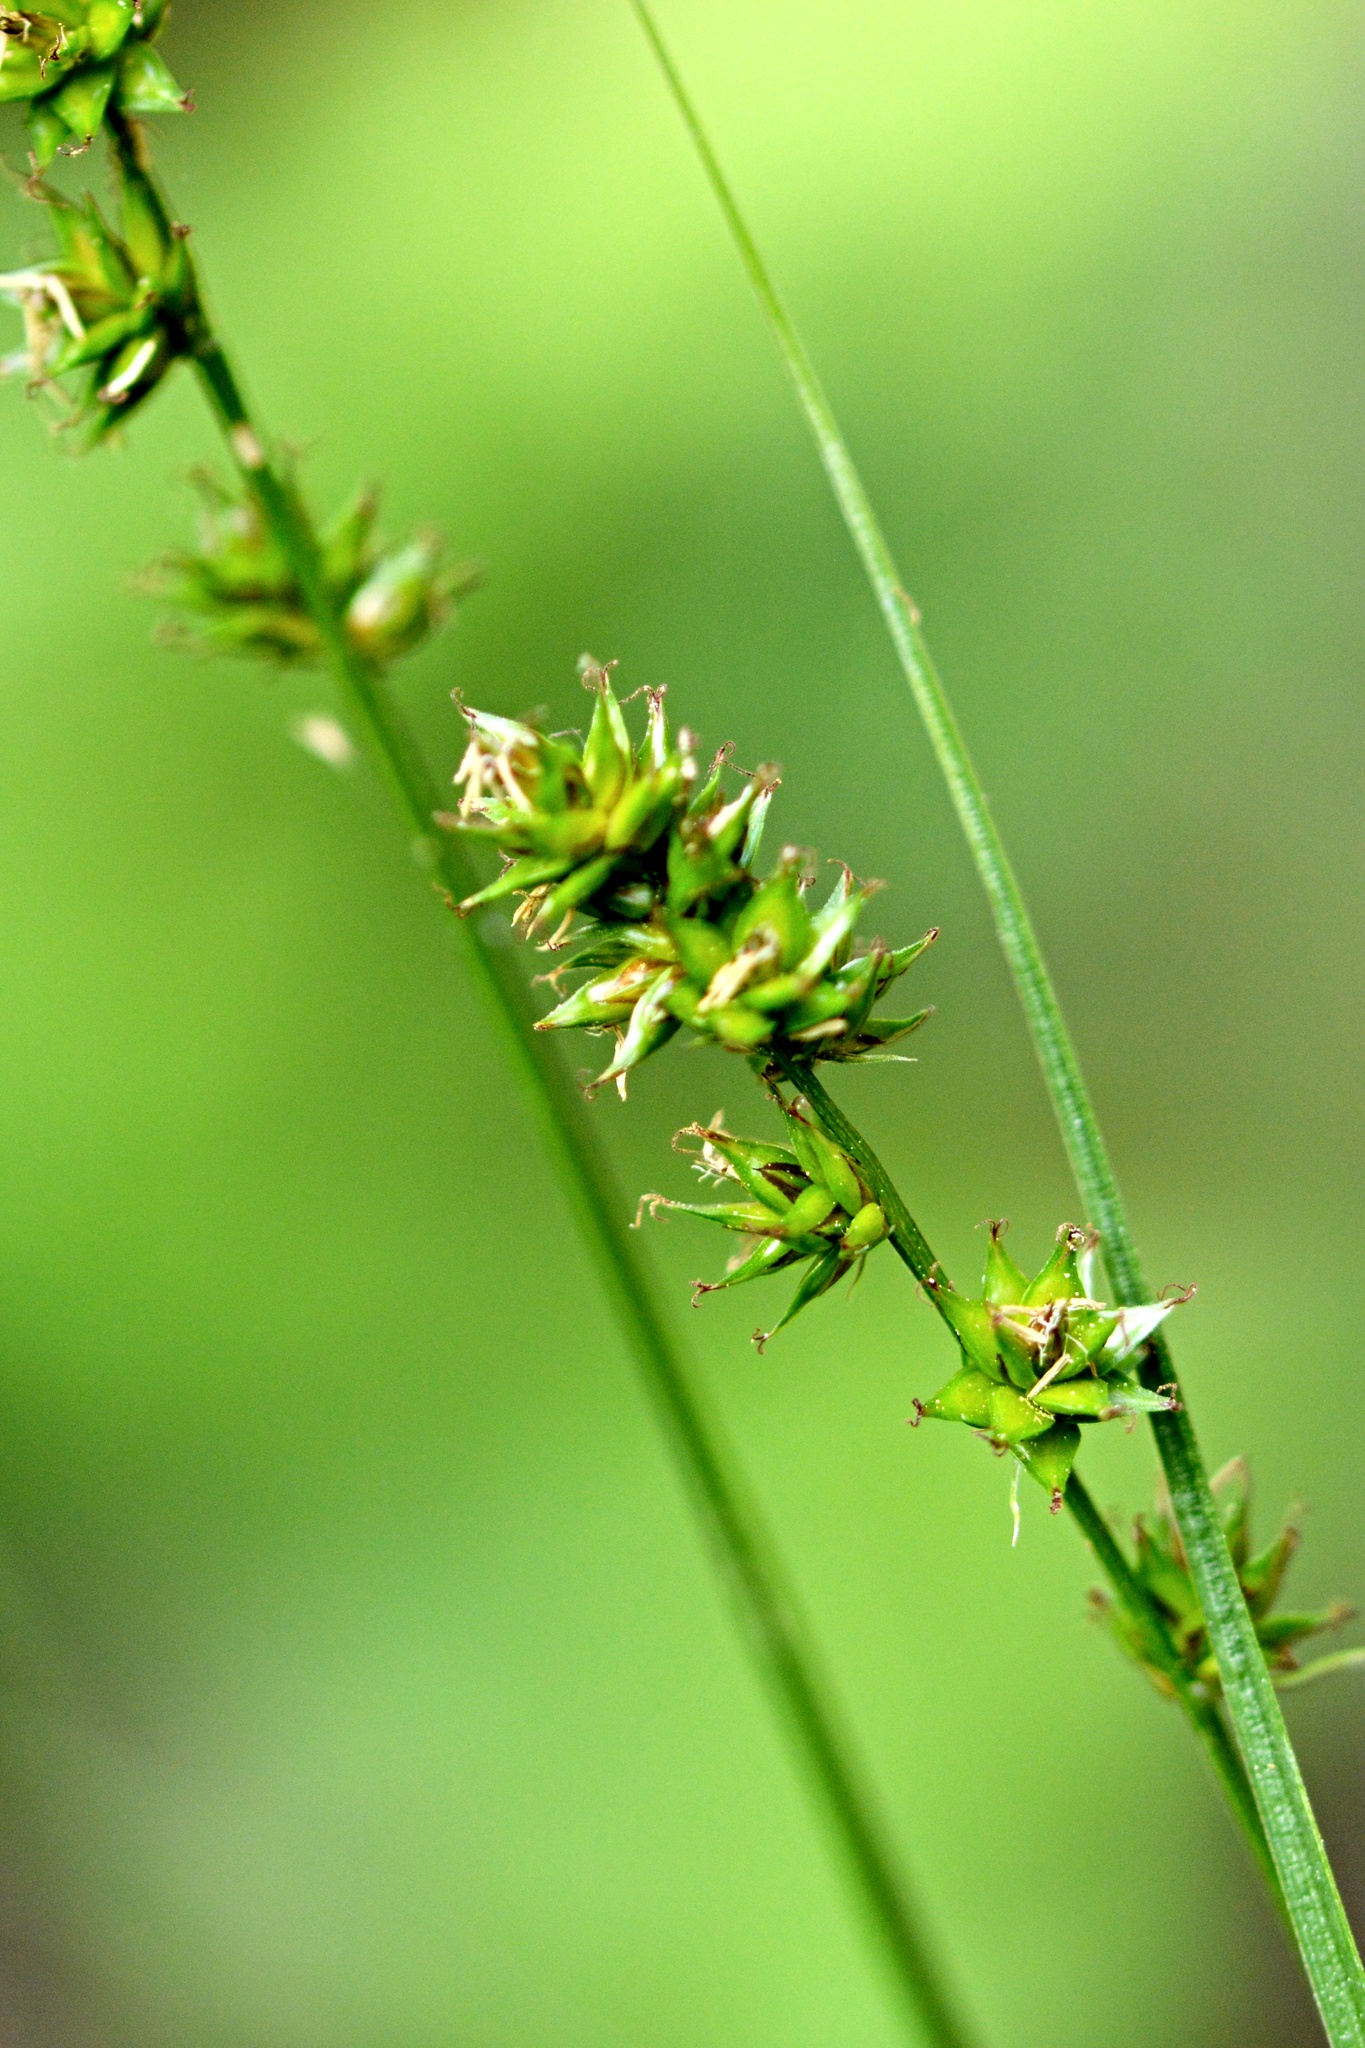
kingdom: Plantae
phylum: Tracheophyta
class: Liliopsida
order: Poales
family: Cyperaceae
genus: Carex
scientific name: Carex leersii
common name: Leers' sedge
